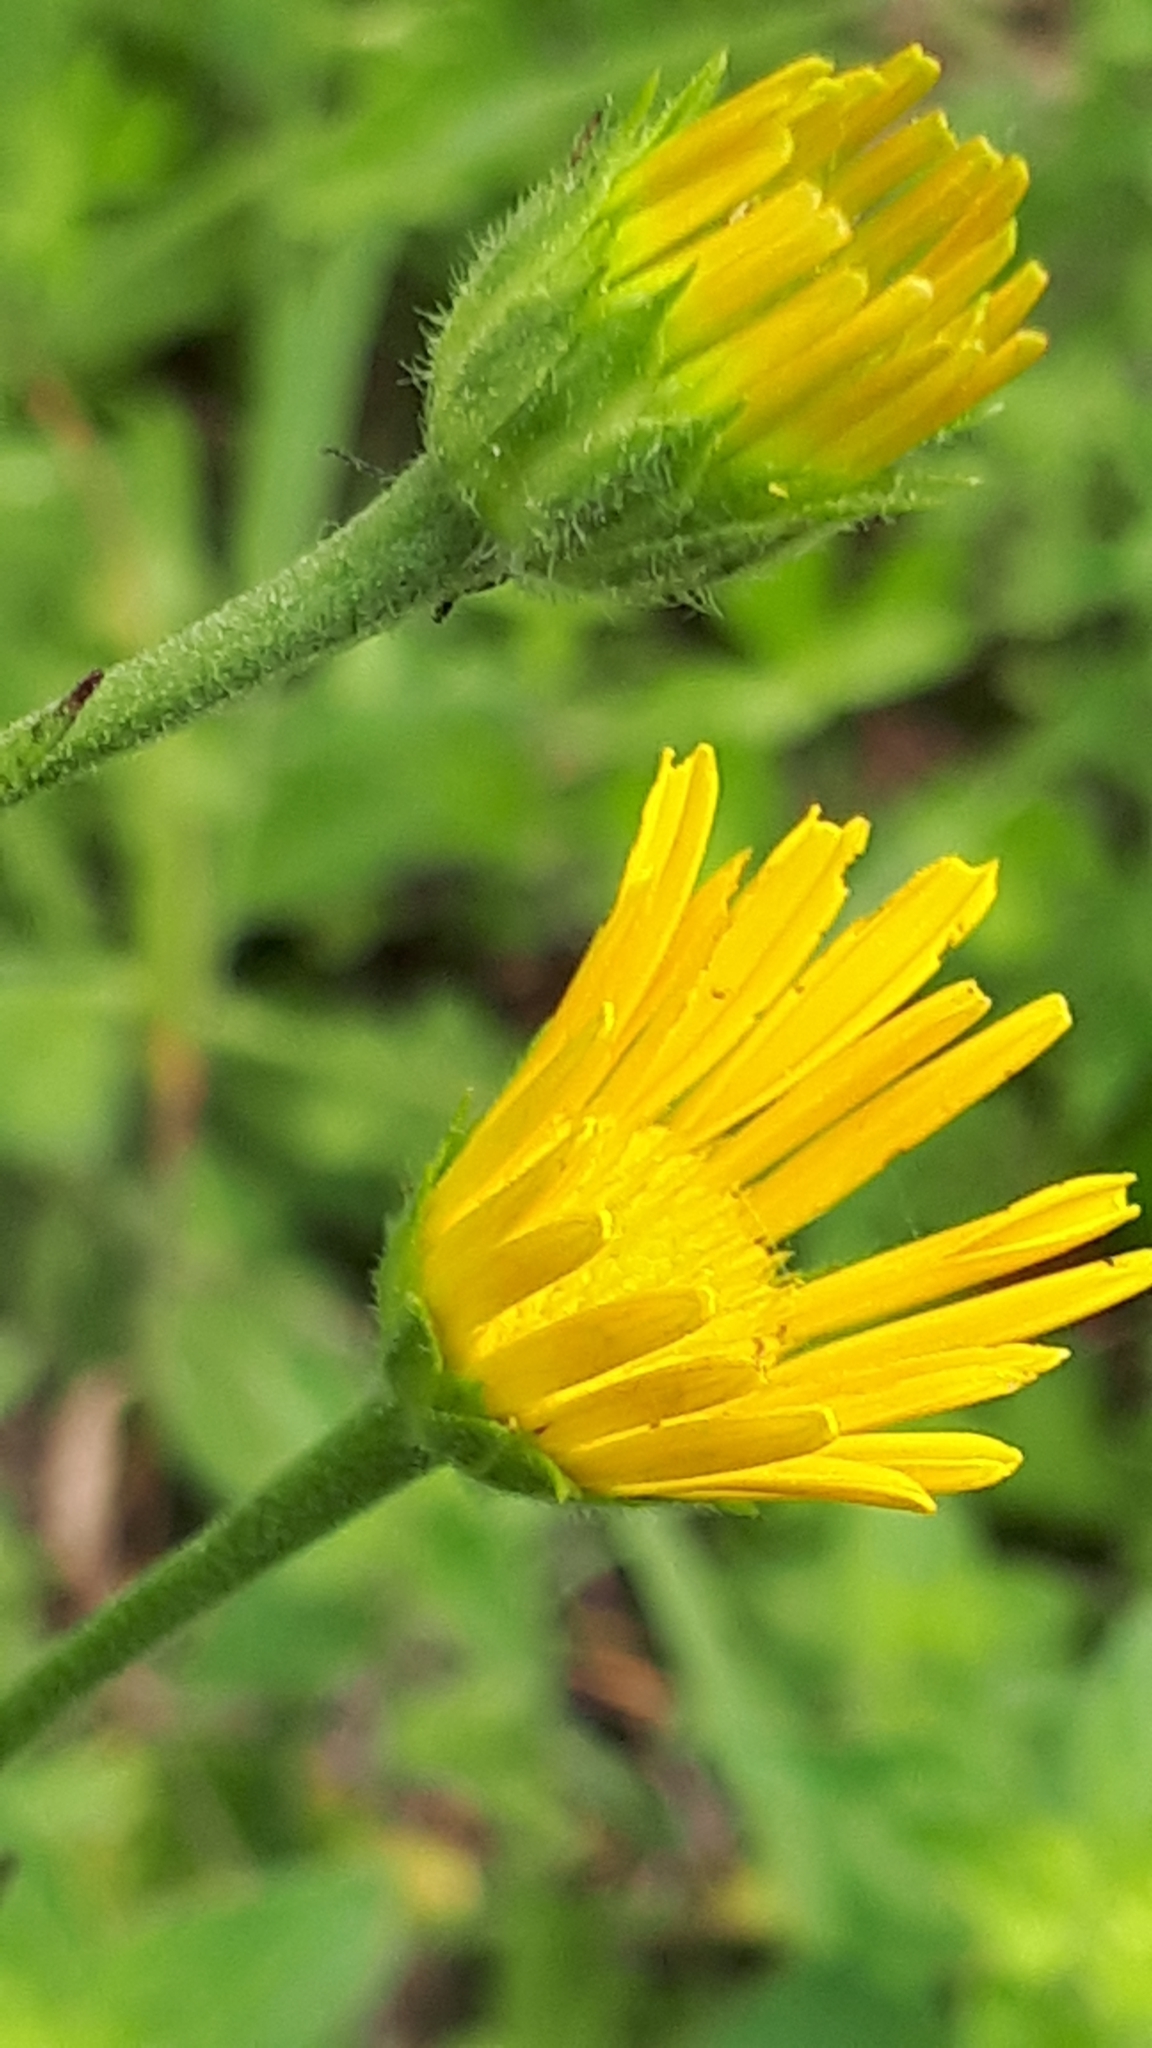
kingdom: Plantae
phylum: Tracheophyta
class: Magnoliopsida
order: Asterales
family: Asteraceae
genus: Buphthalmum
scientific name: Buphthalmum salicifolium
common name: Willow-leaved yellow-oxeye
